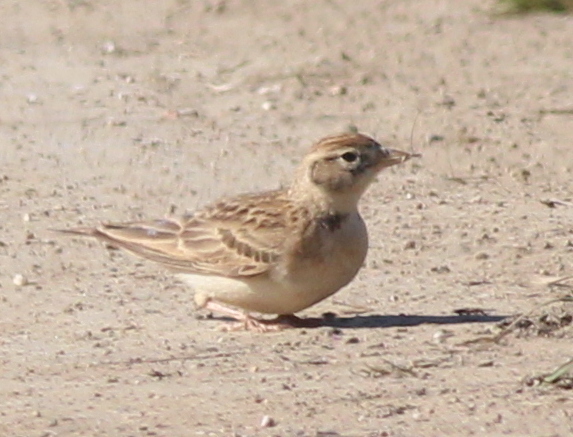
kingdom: Animalia
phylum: Chordata
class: Aves
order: Passeriformes
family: Alaudidae
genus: Calandrella
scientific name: Calandrella brachydactyla
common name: Greater short-toed lark
